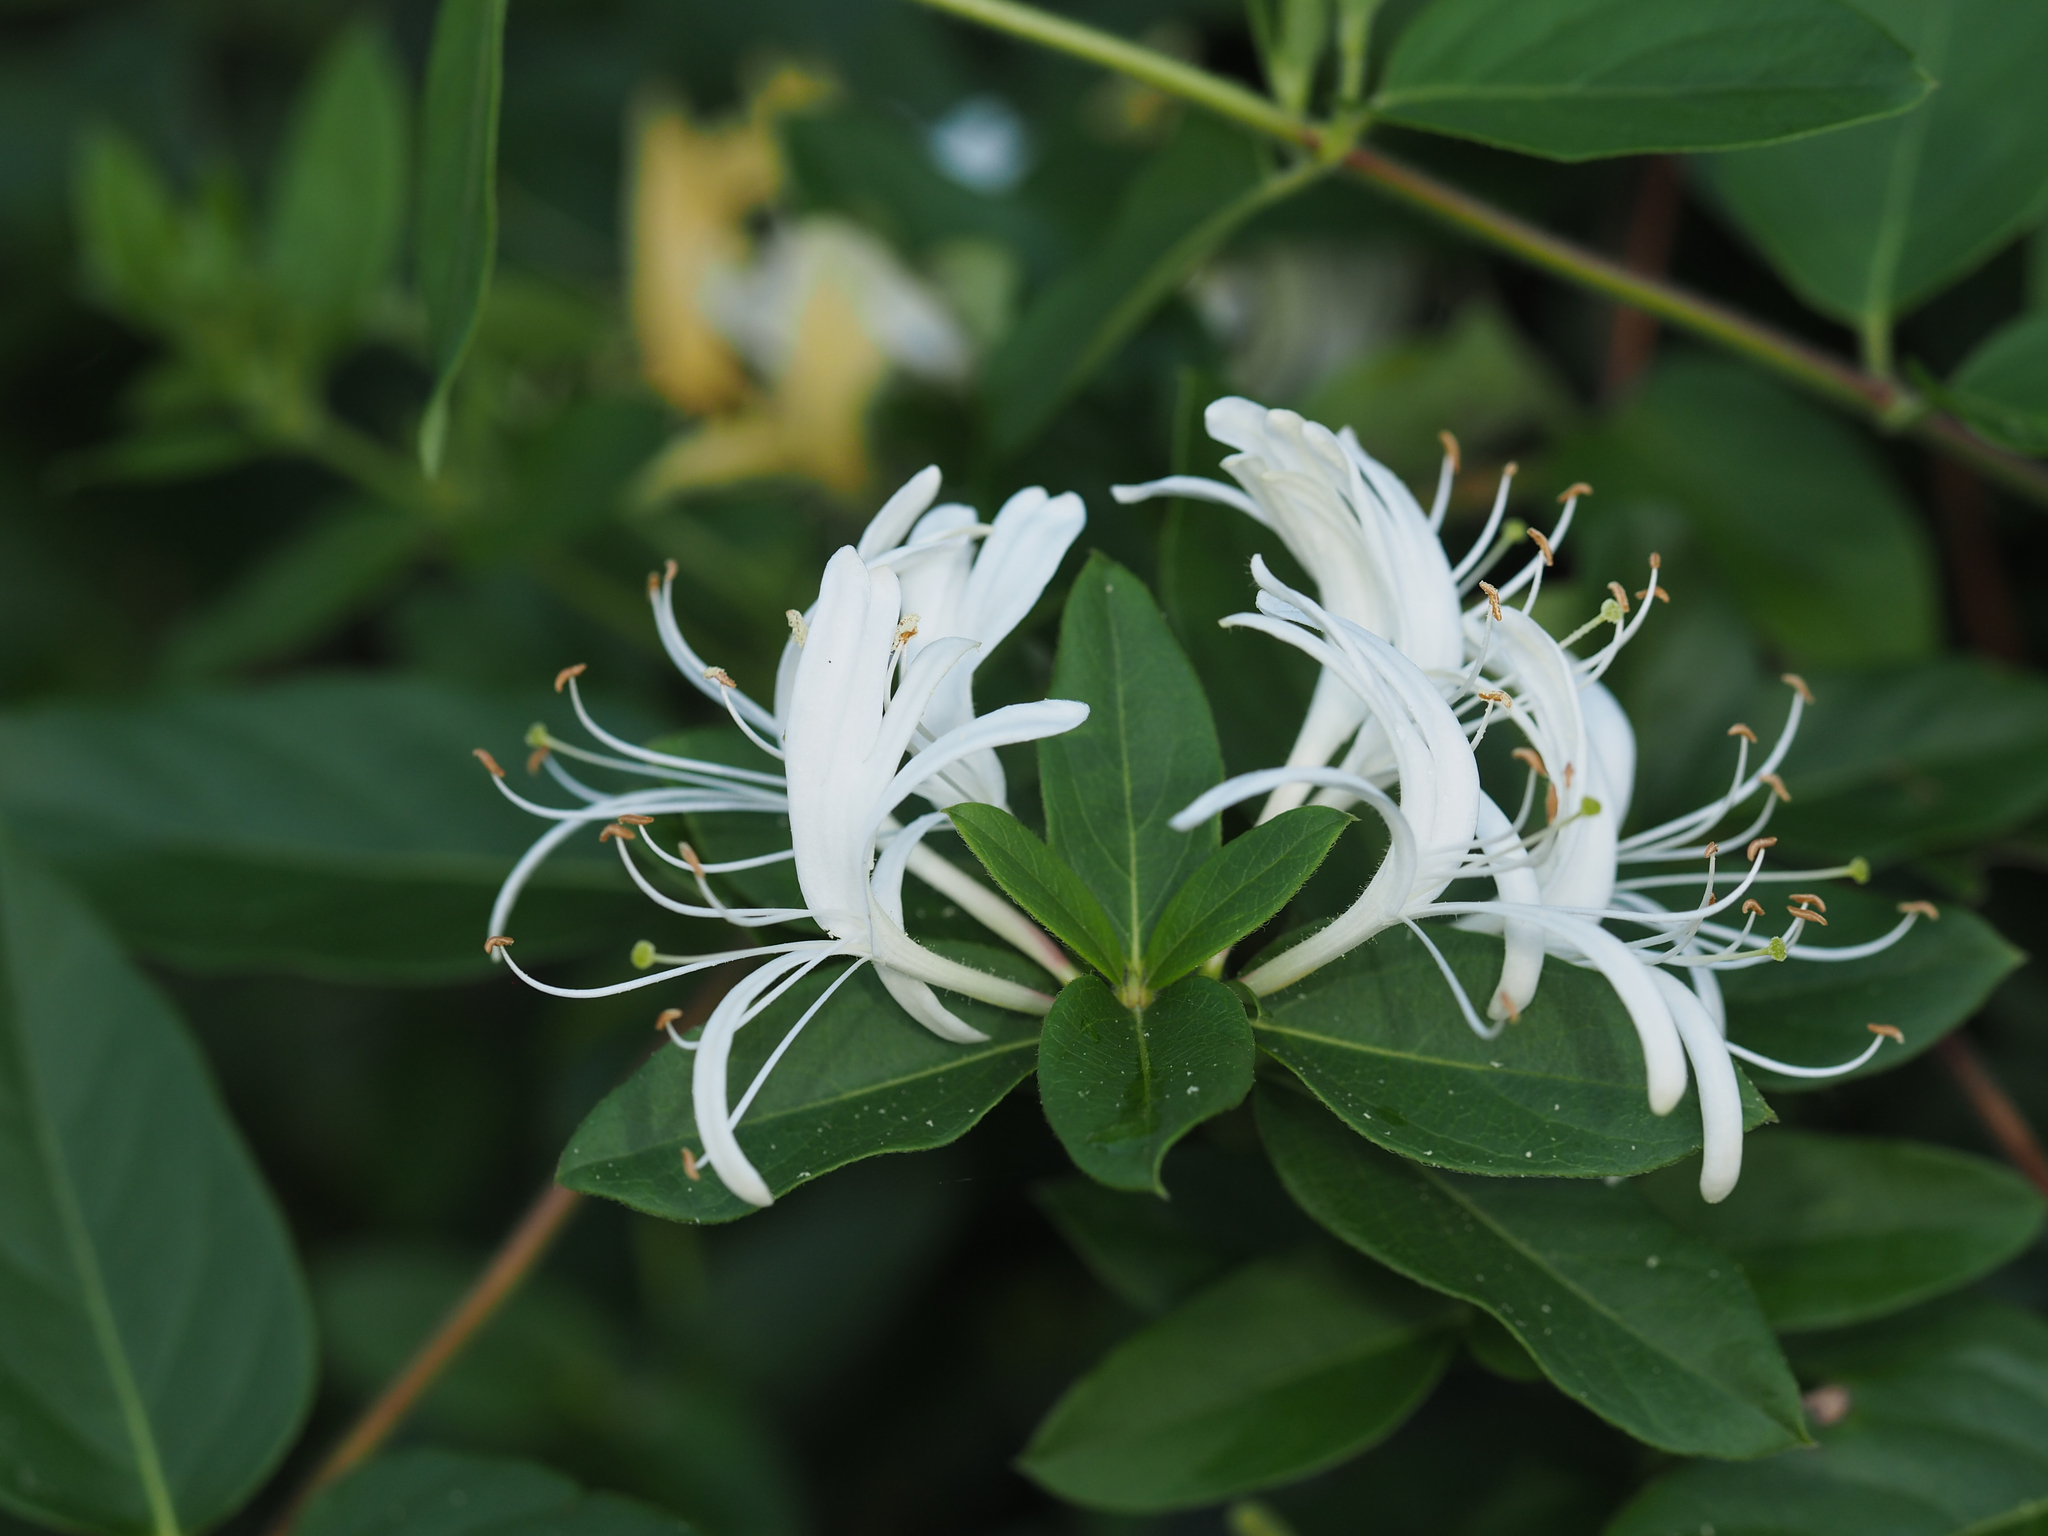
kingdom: Plantae
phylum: Tracheophyta
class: Magnoliopsida
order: Dipsacales
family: Caprifoliaceae
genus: Lonicera
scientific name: Lonicera japonica
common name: Japanese honeysuckle
